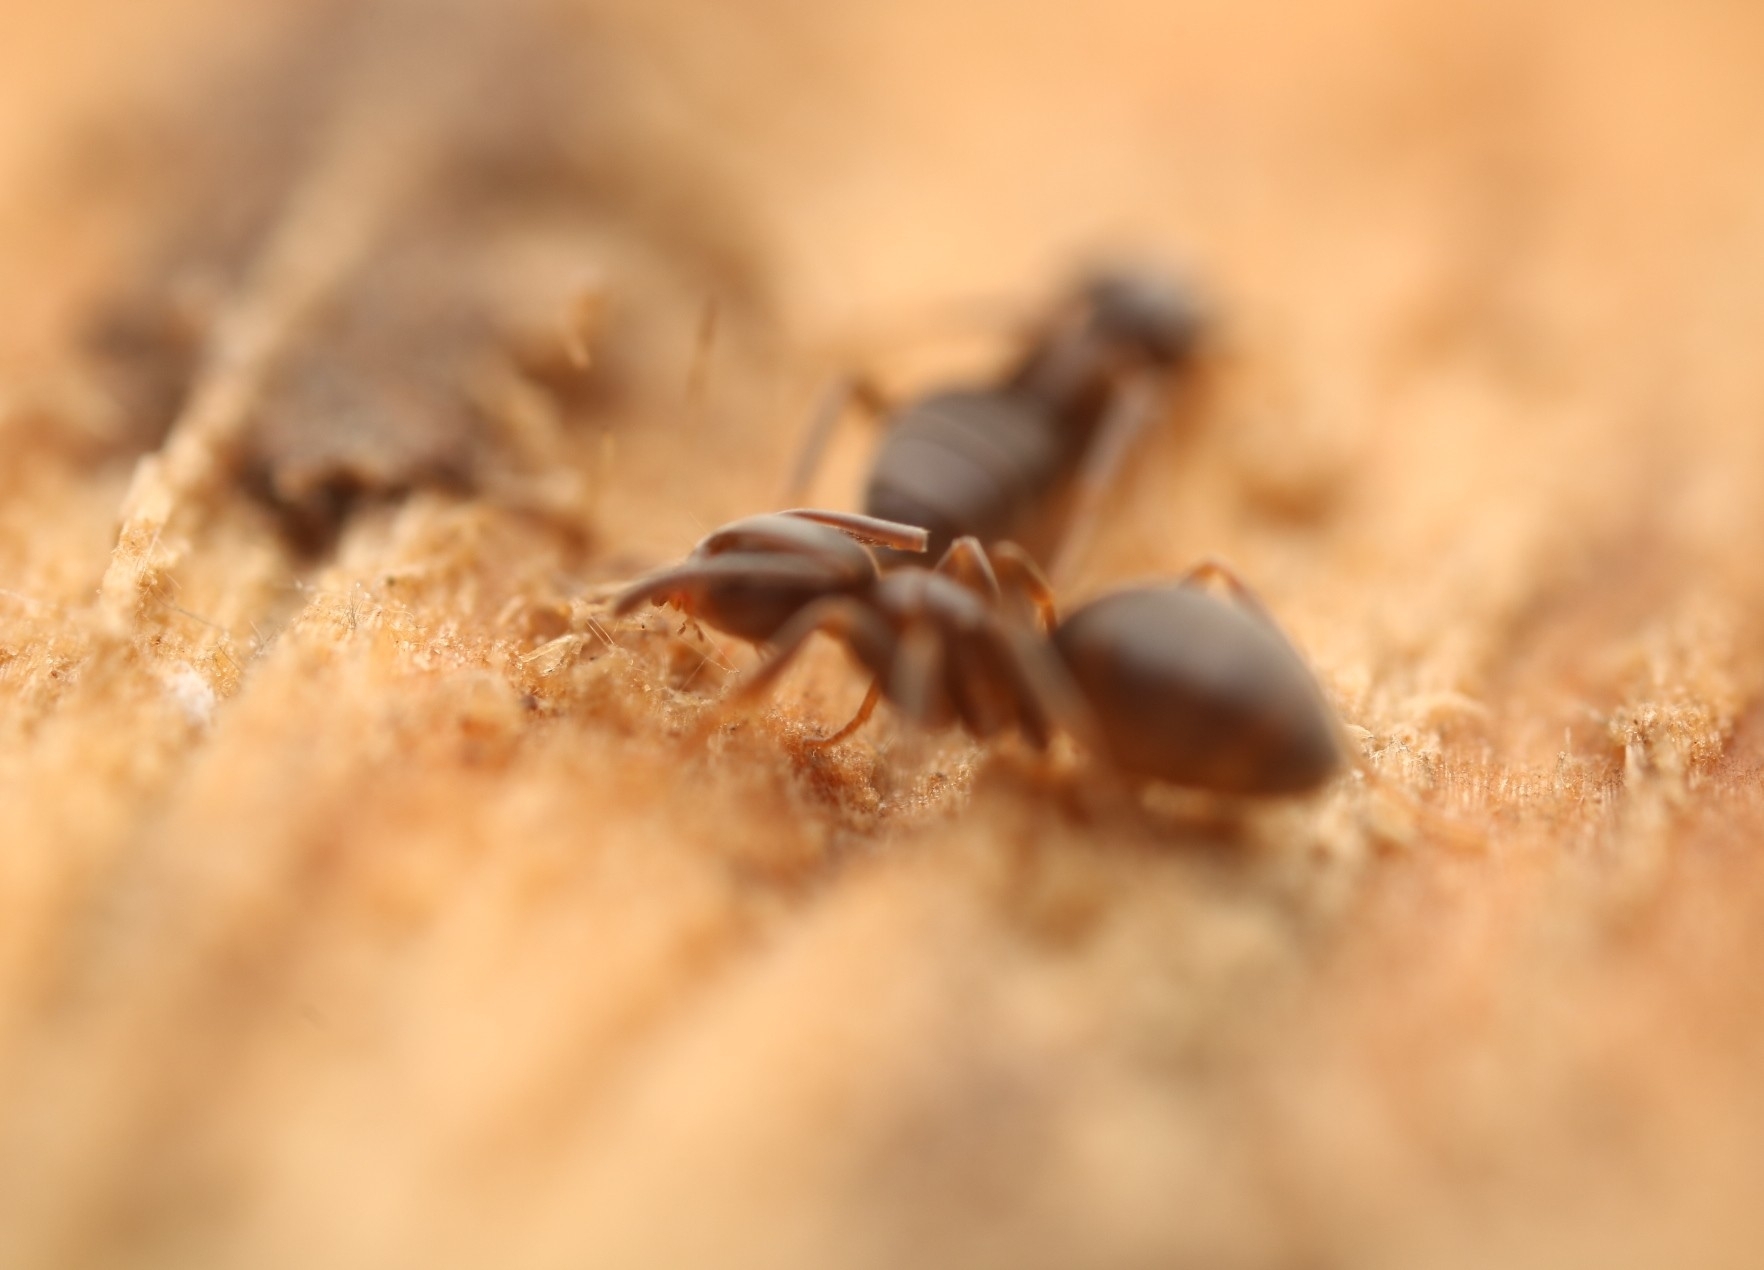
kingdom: Animalia
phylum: Arthropoda
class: Insecta
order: Hymenoptera
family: Formicidae
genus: Tapinoma
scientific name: Tapinoma sessile
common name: Odorous house ant
